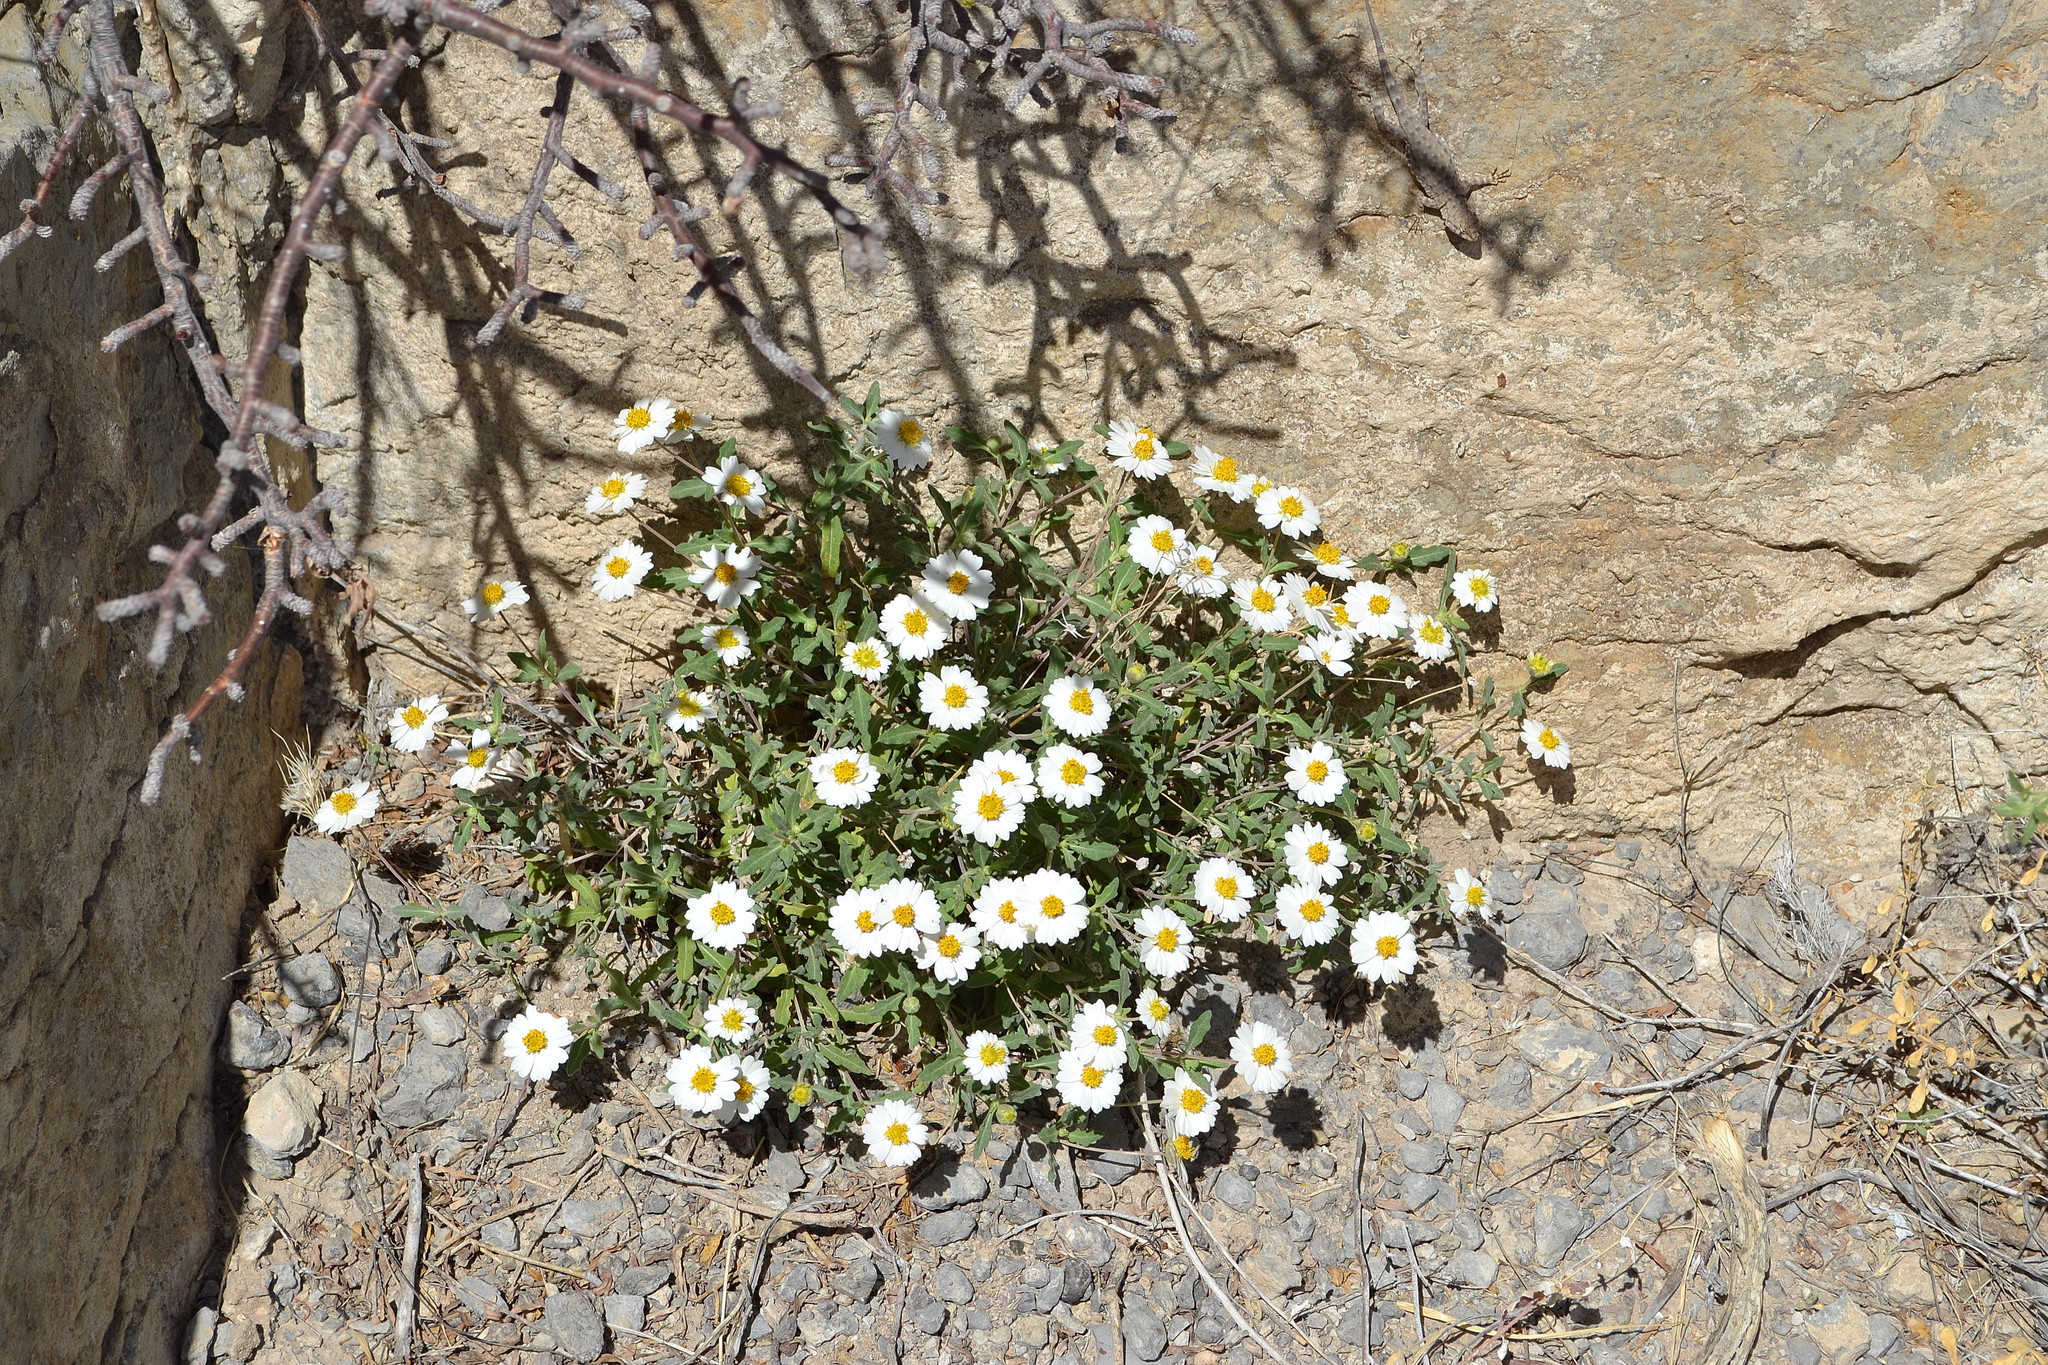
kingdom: Plantae
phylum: Tracheophyta
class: Magnoliopsida
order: Asterales
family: Asteraceae
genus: Melampodium
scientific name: Melampodium leucanthum
